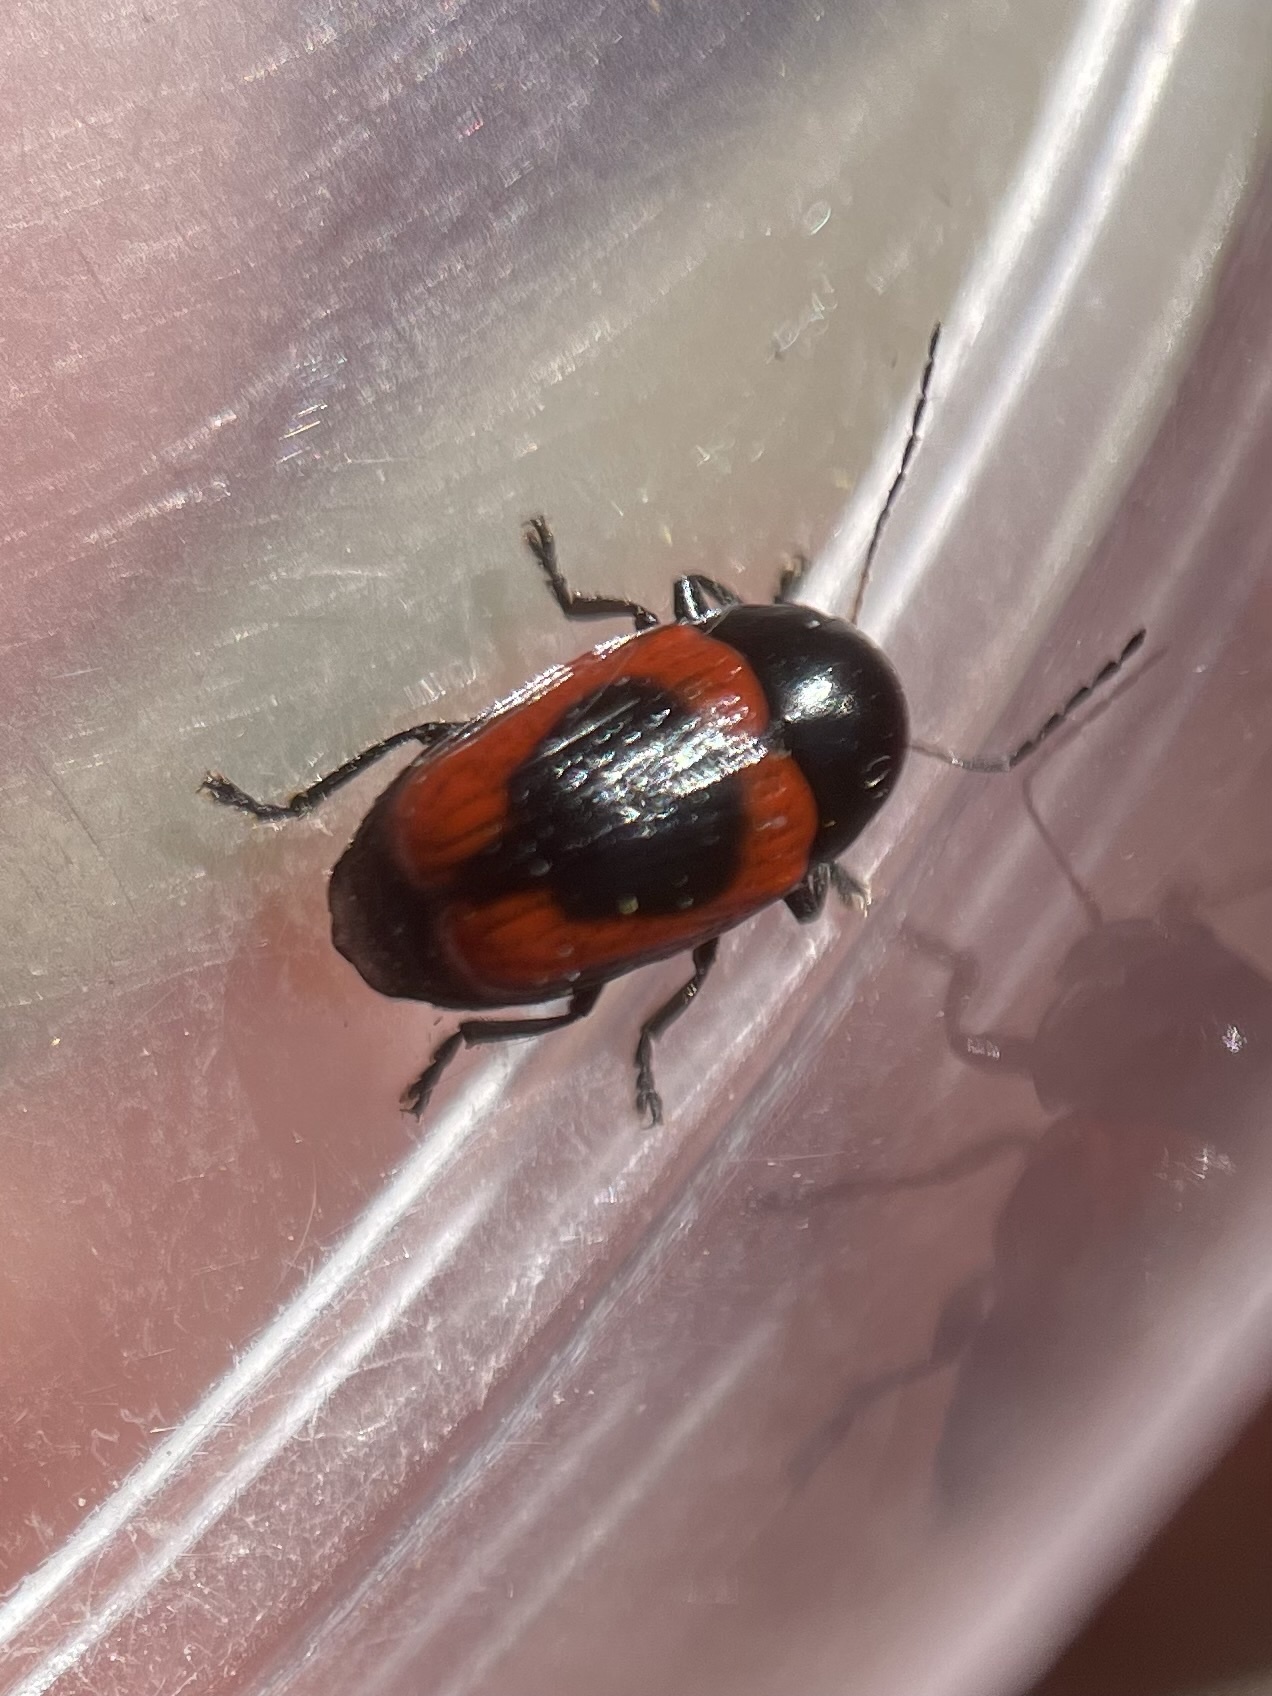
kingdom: Animalia
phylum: Arthropoda
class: Insecta
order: Coleoptera
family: Chrysomelidae
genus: Cryptocephalus
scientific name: Cryptocephalus notatus
